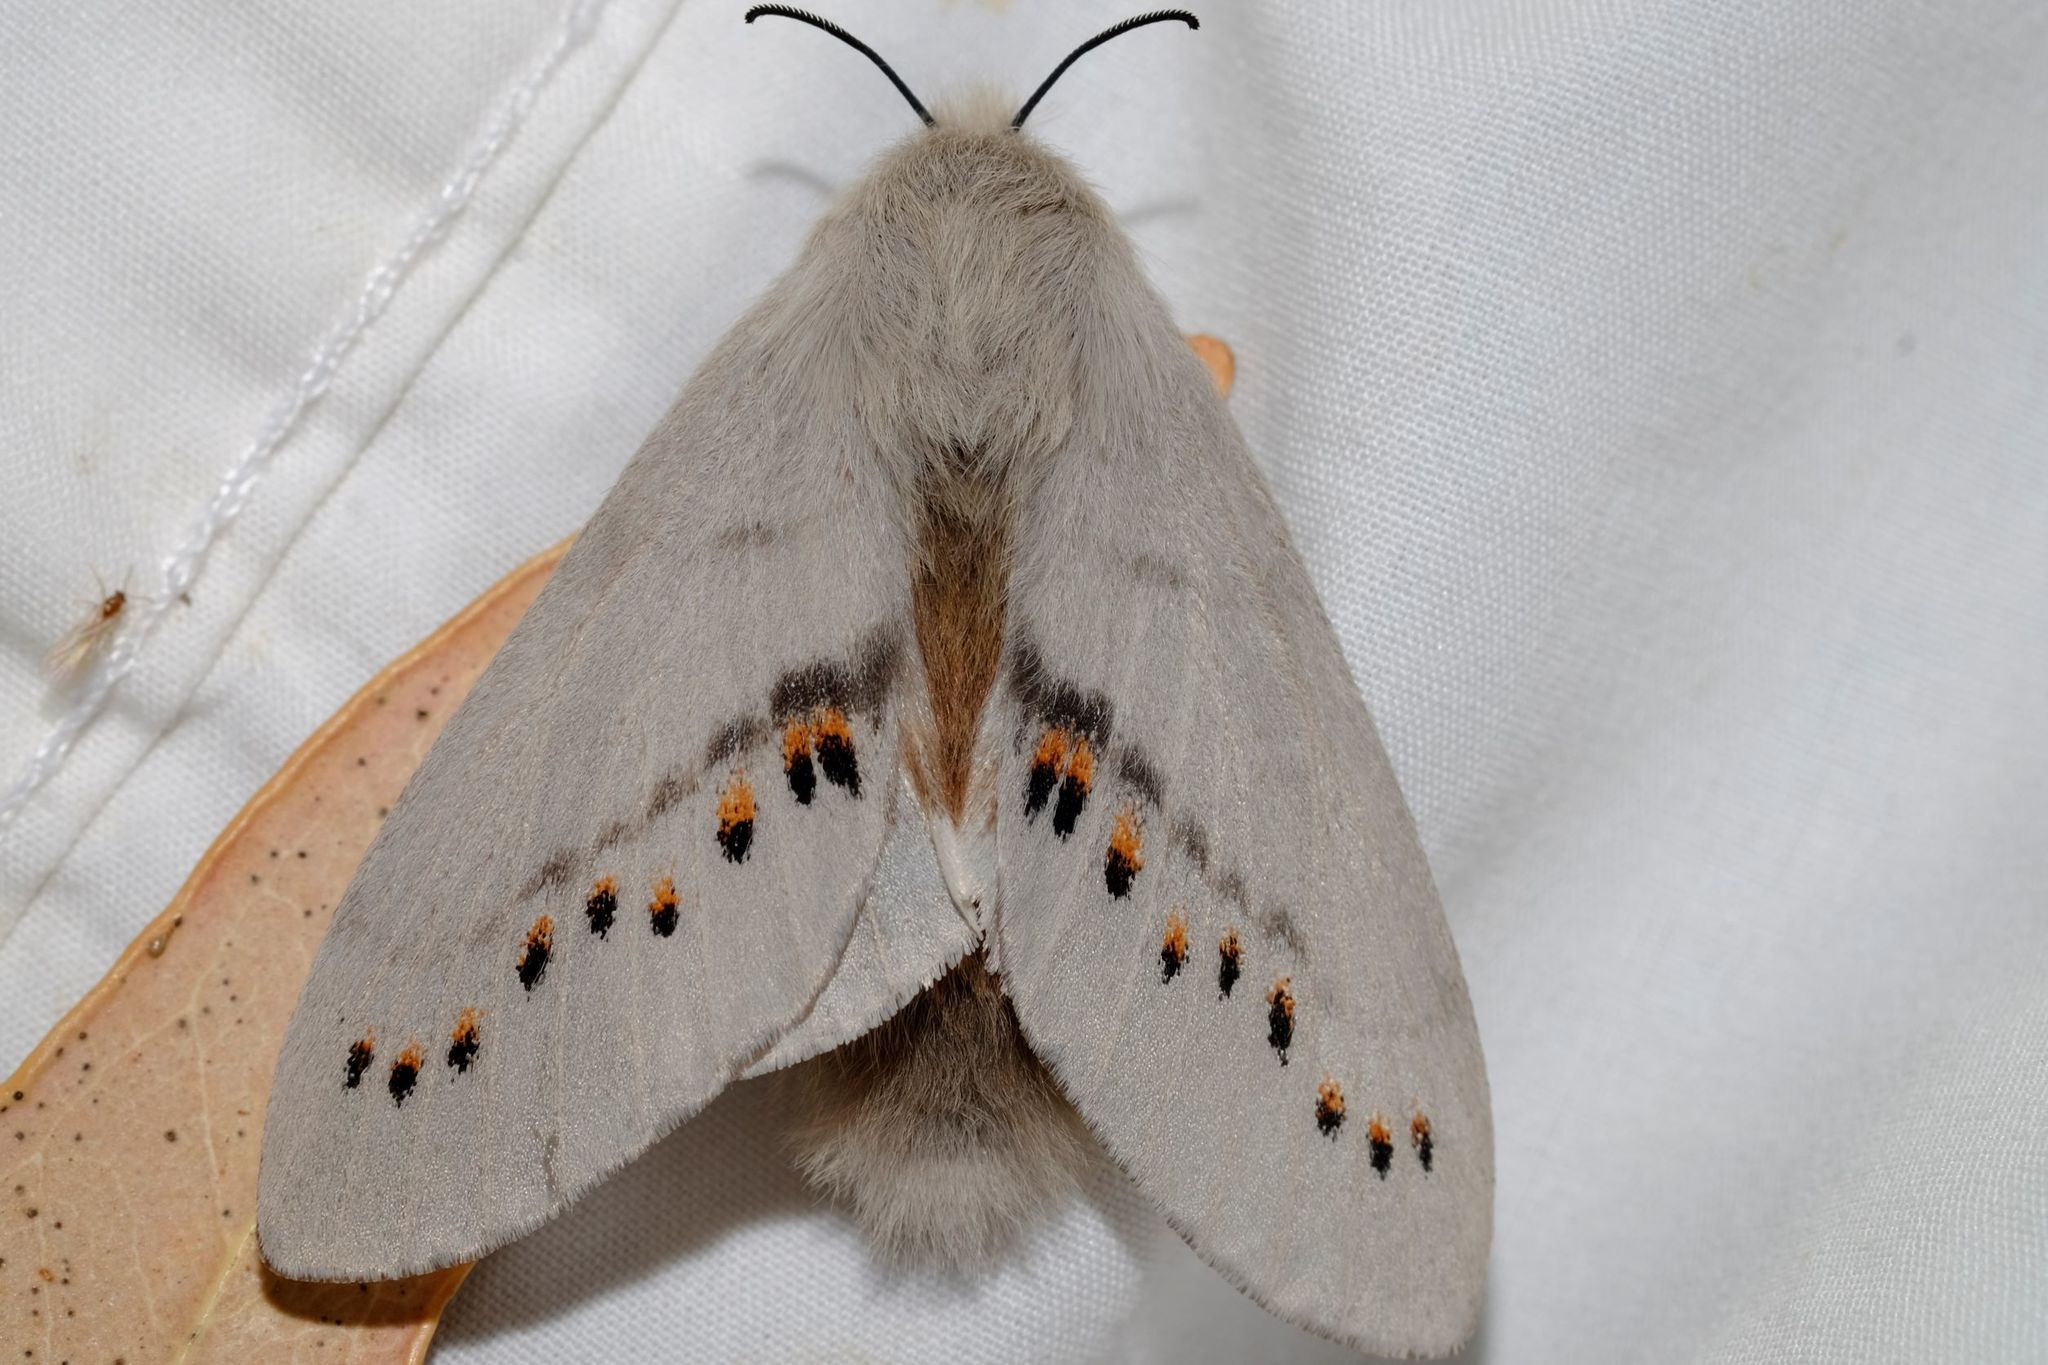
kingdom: Animalia
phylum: Arthropoda
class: Insecta
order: Lepidoptera
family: Lasiocampidae
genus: Pinara
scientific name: Pinara metaphaea
